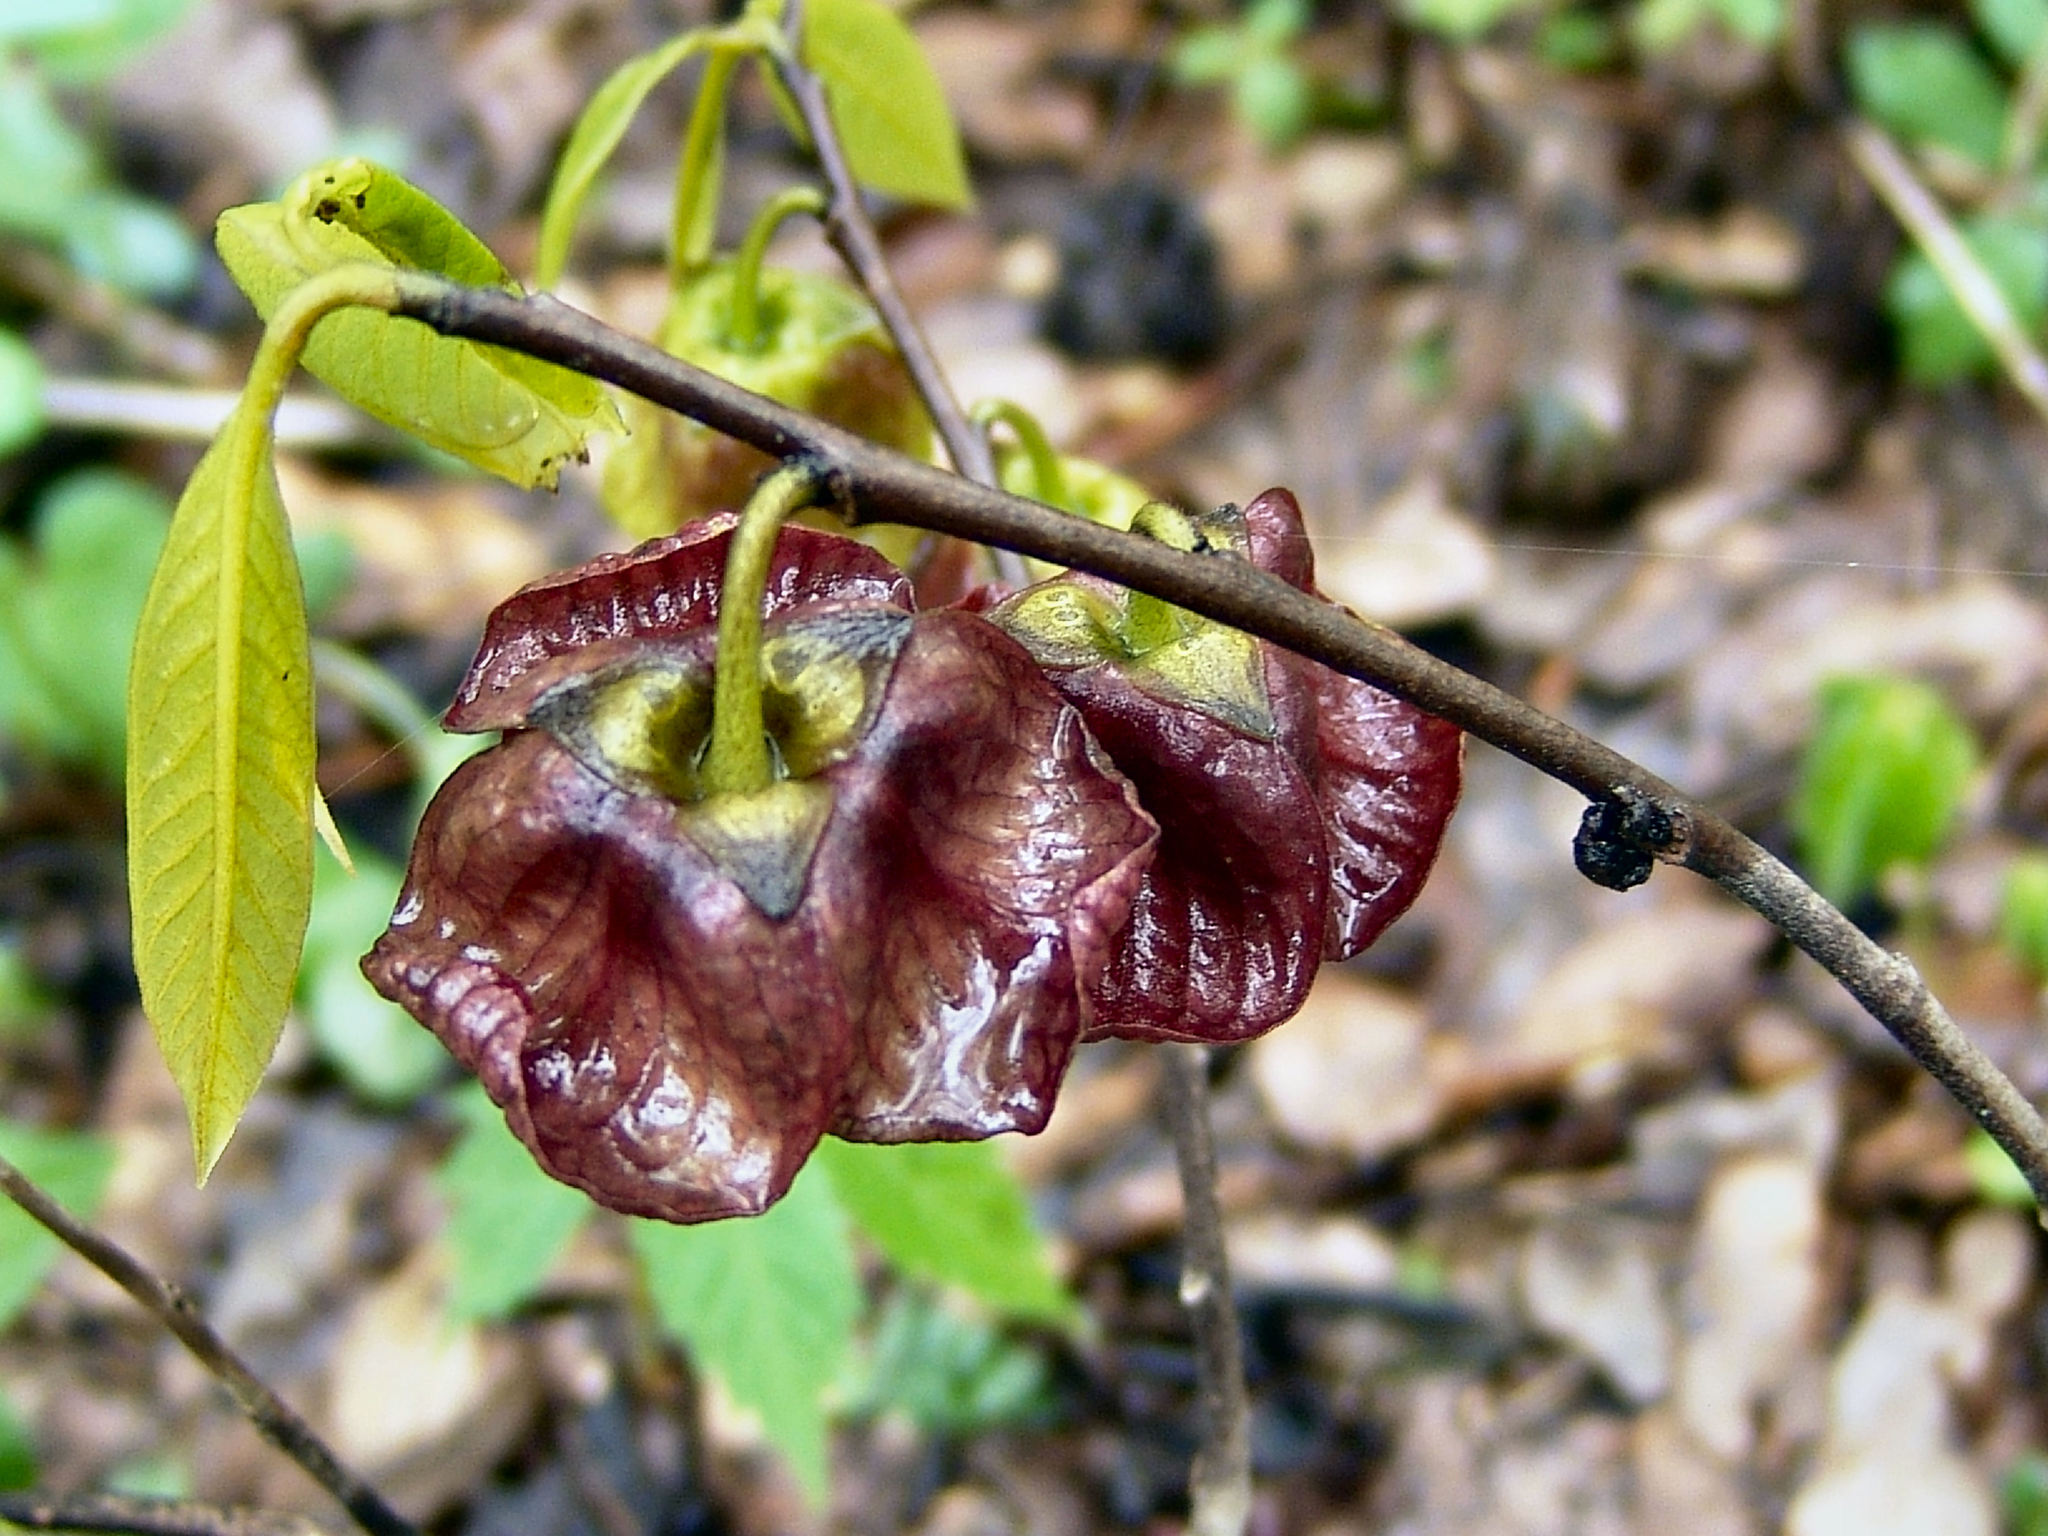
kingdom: Plantae
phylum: Tracheophyta
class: Magnoliopsida
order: Magnoliales
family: Annonaceae
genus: Asimina
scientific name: Asimina triloba
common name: Dog-banana
